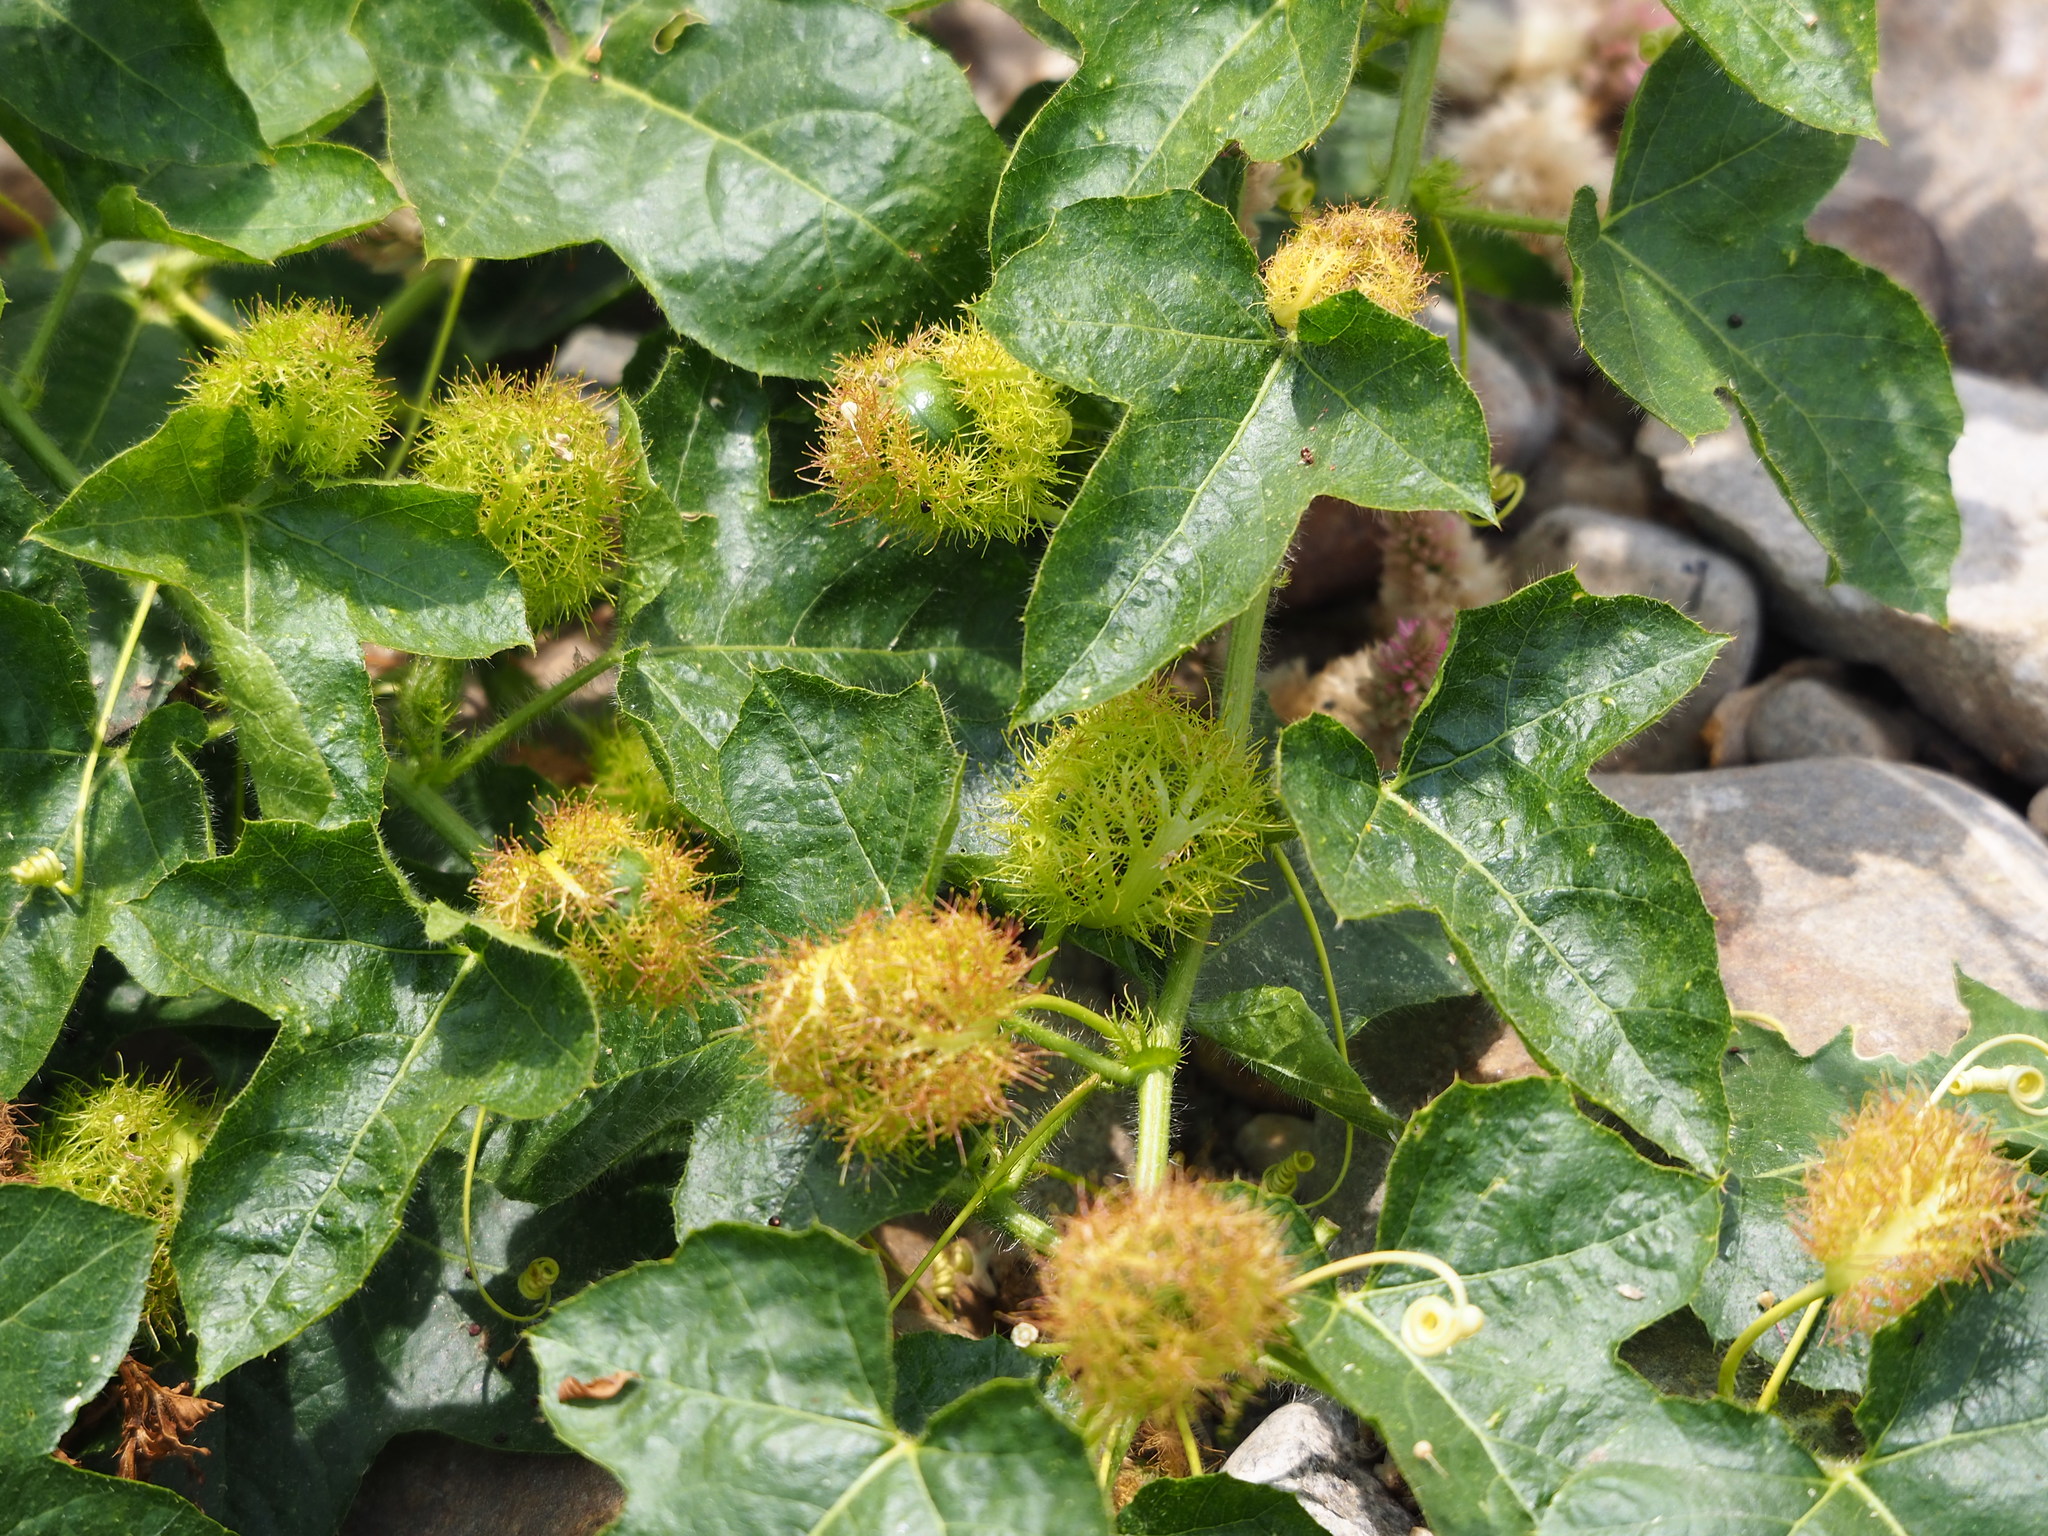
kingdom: Plantae
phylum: Tracheophyta
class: Magnoliopsida
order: Malpighiales
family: Passifloraceae
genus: Passiflora
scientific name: Passiflora vesicaria
